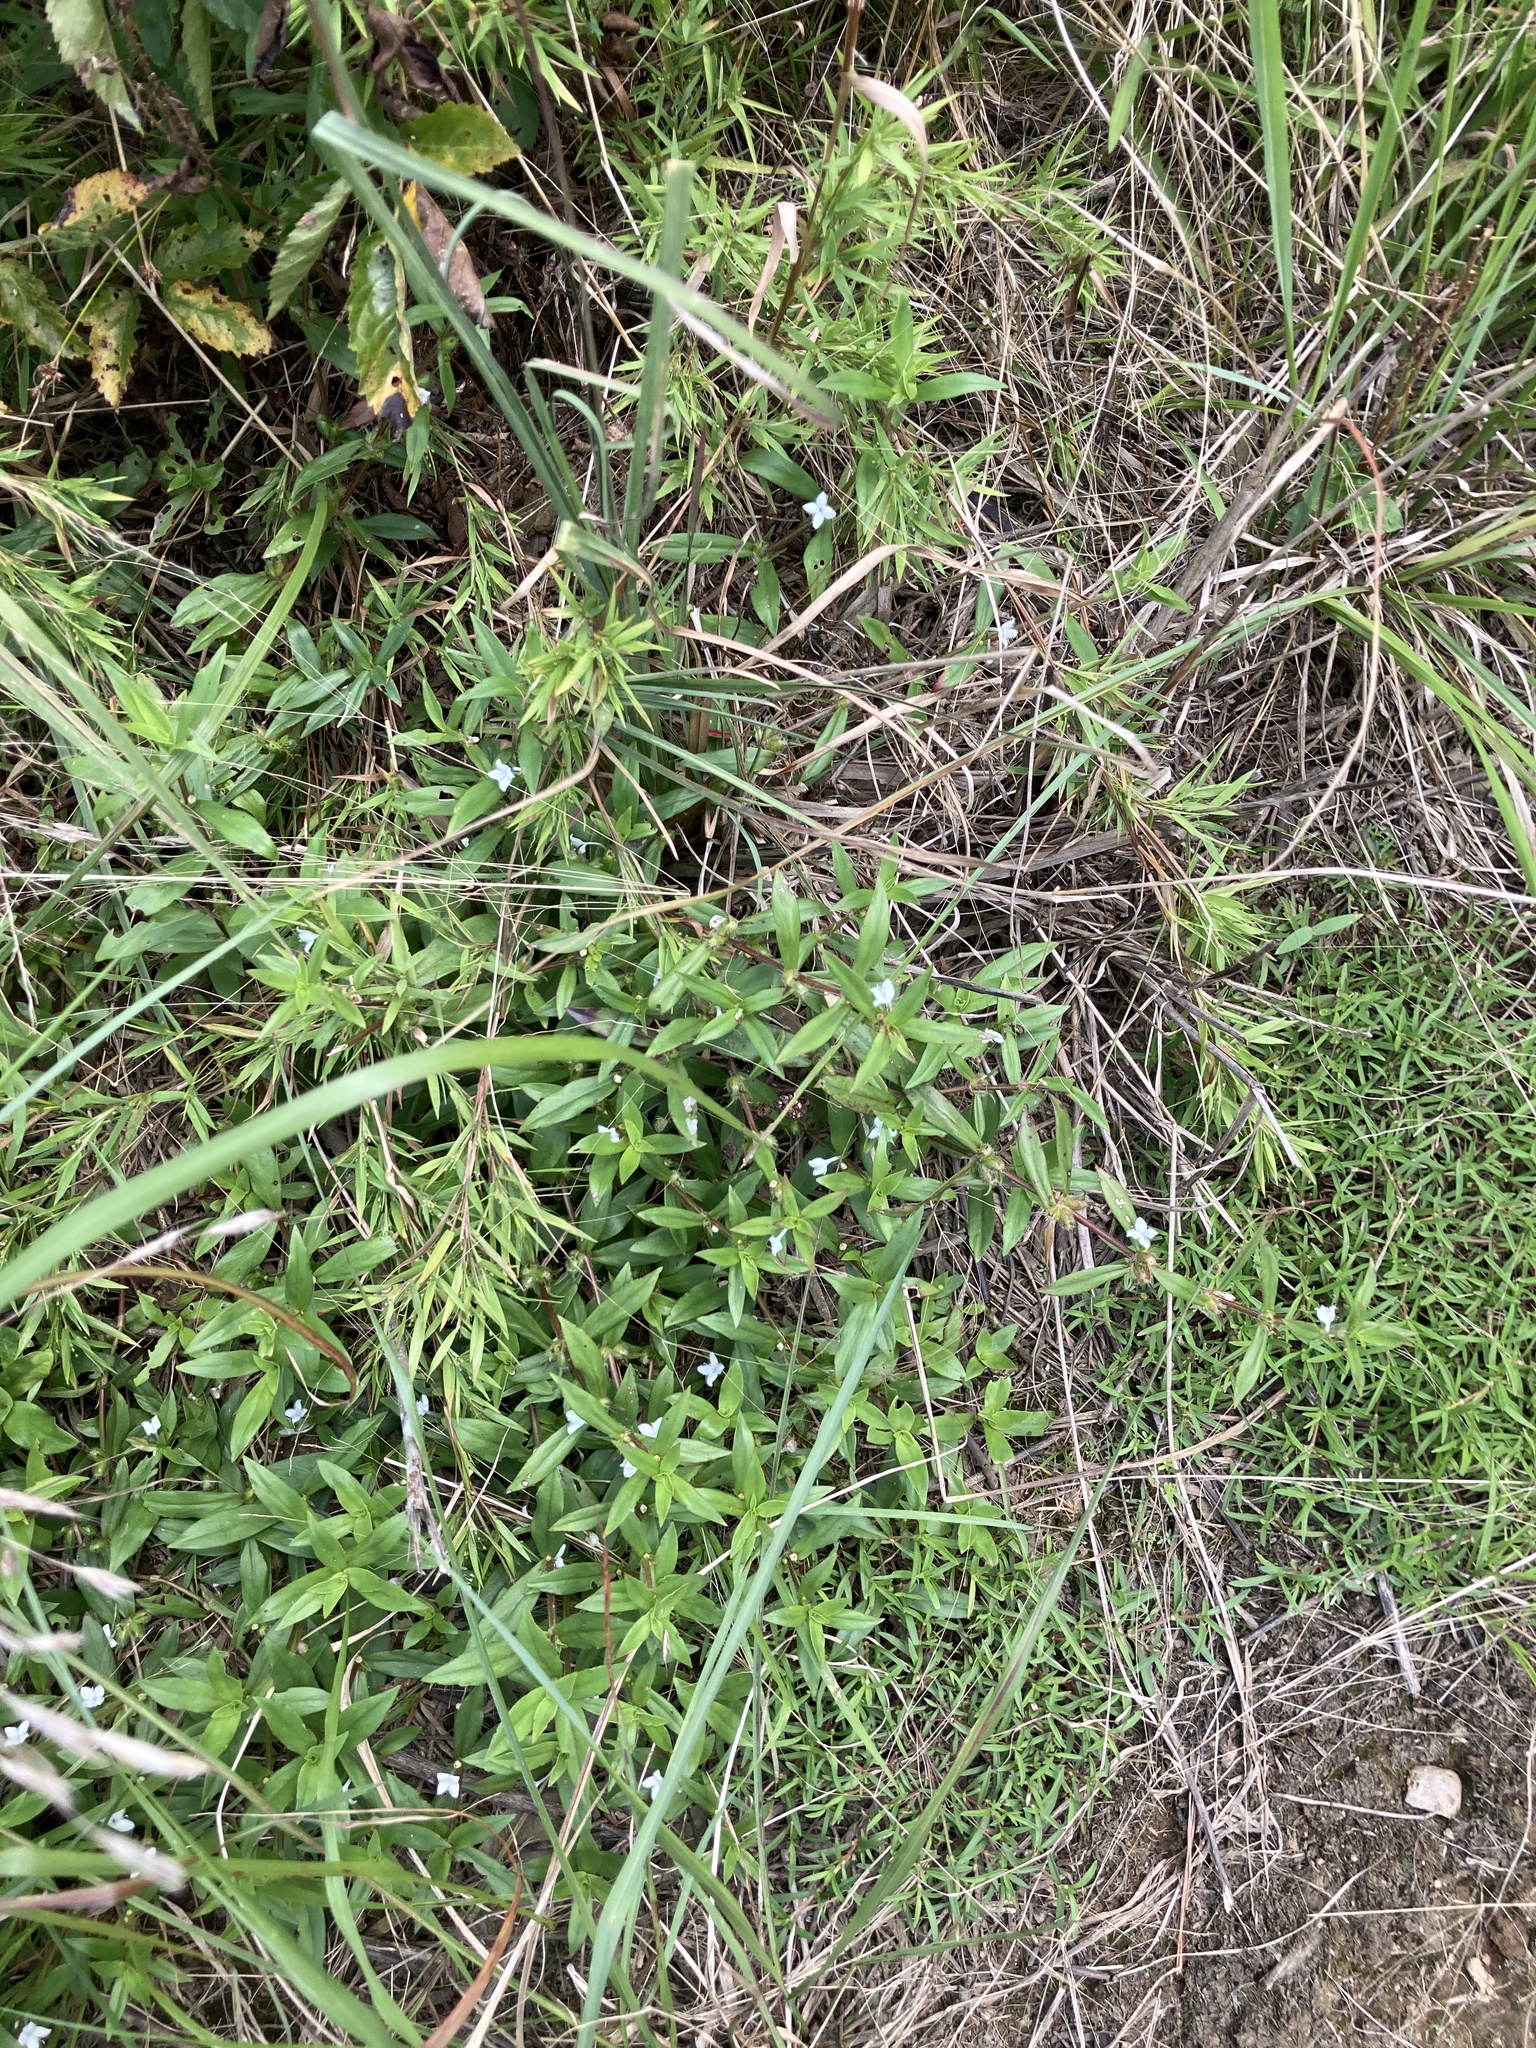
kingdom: Plantae
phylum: Tracheophyta
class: Magnoliopsida
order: Gentianales
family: Rubiaceae
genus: Diodia
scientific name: Diodia virginiana
